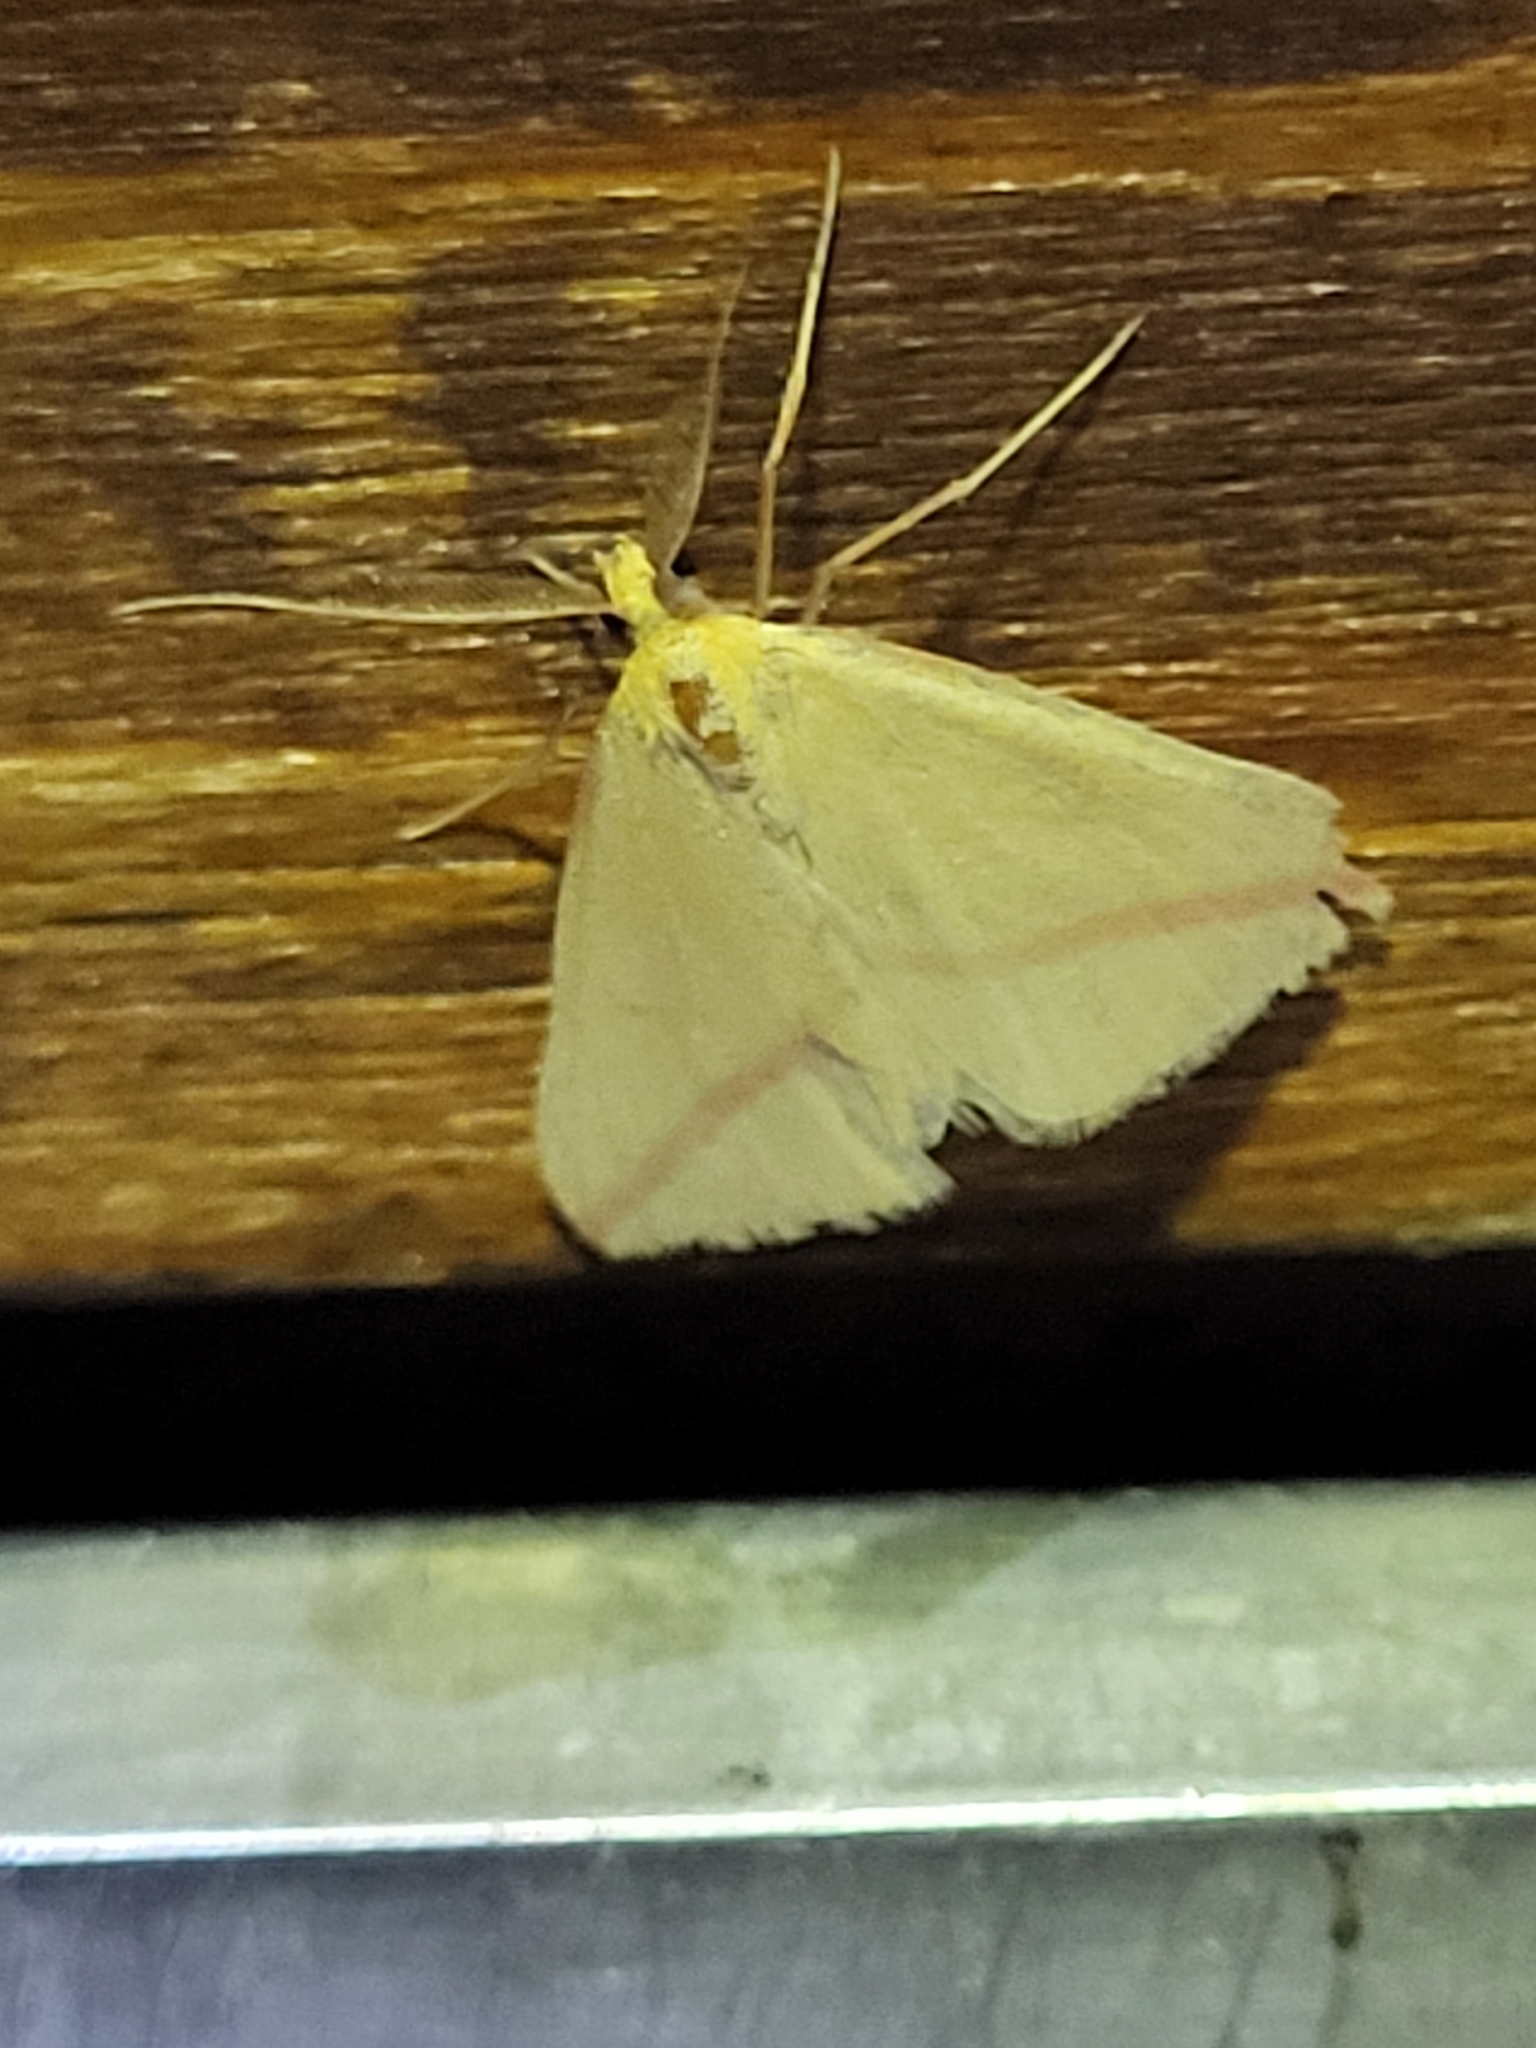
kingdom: Animalia
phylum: Arthropoda
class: Insecta
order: Lepidoptera
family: Geometridae
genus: Rhodometra
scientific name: Rhodometra sacraria
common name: Vestal
